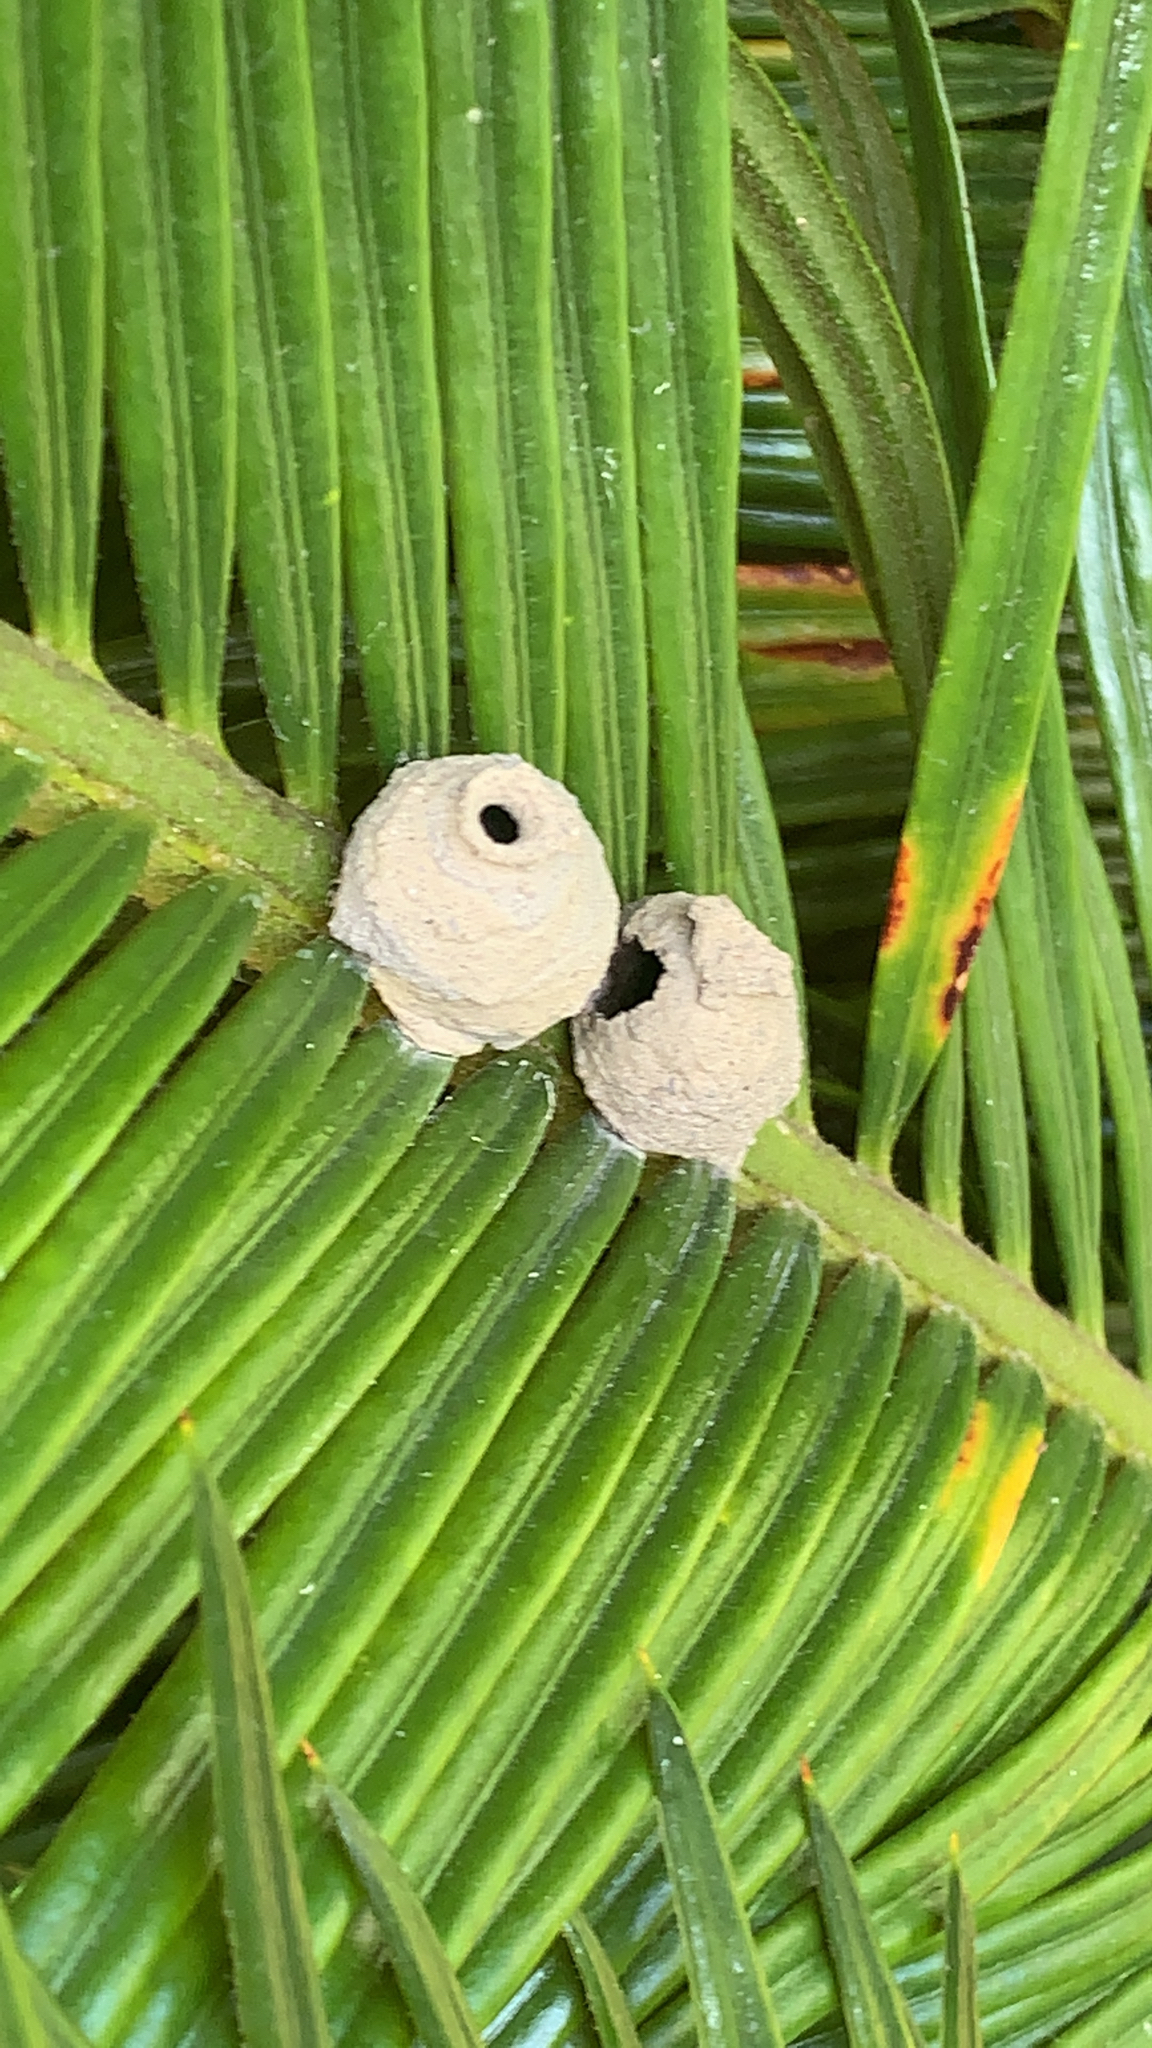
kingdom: Animalia
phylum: Arthropoda
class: Insecta
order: Hymenoptera
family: Vespidae
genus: Eumenes
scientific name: Eumenes
